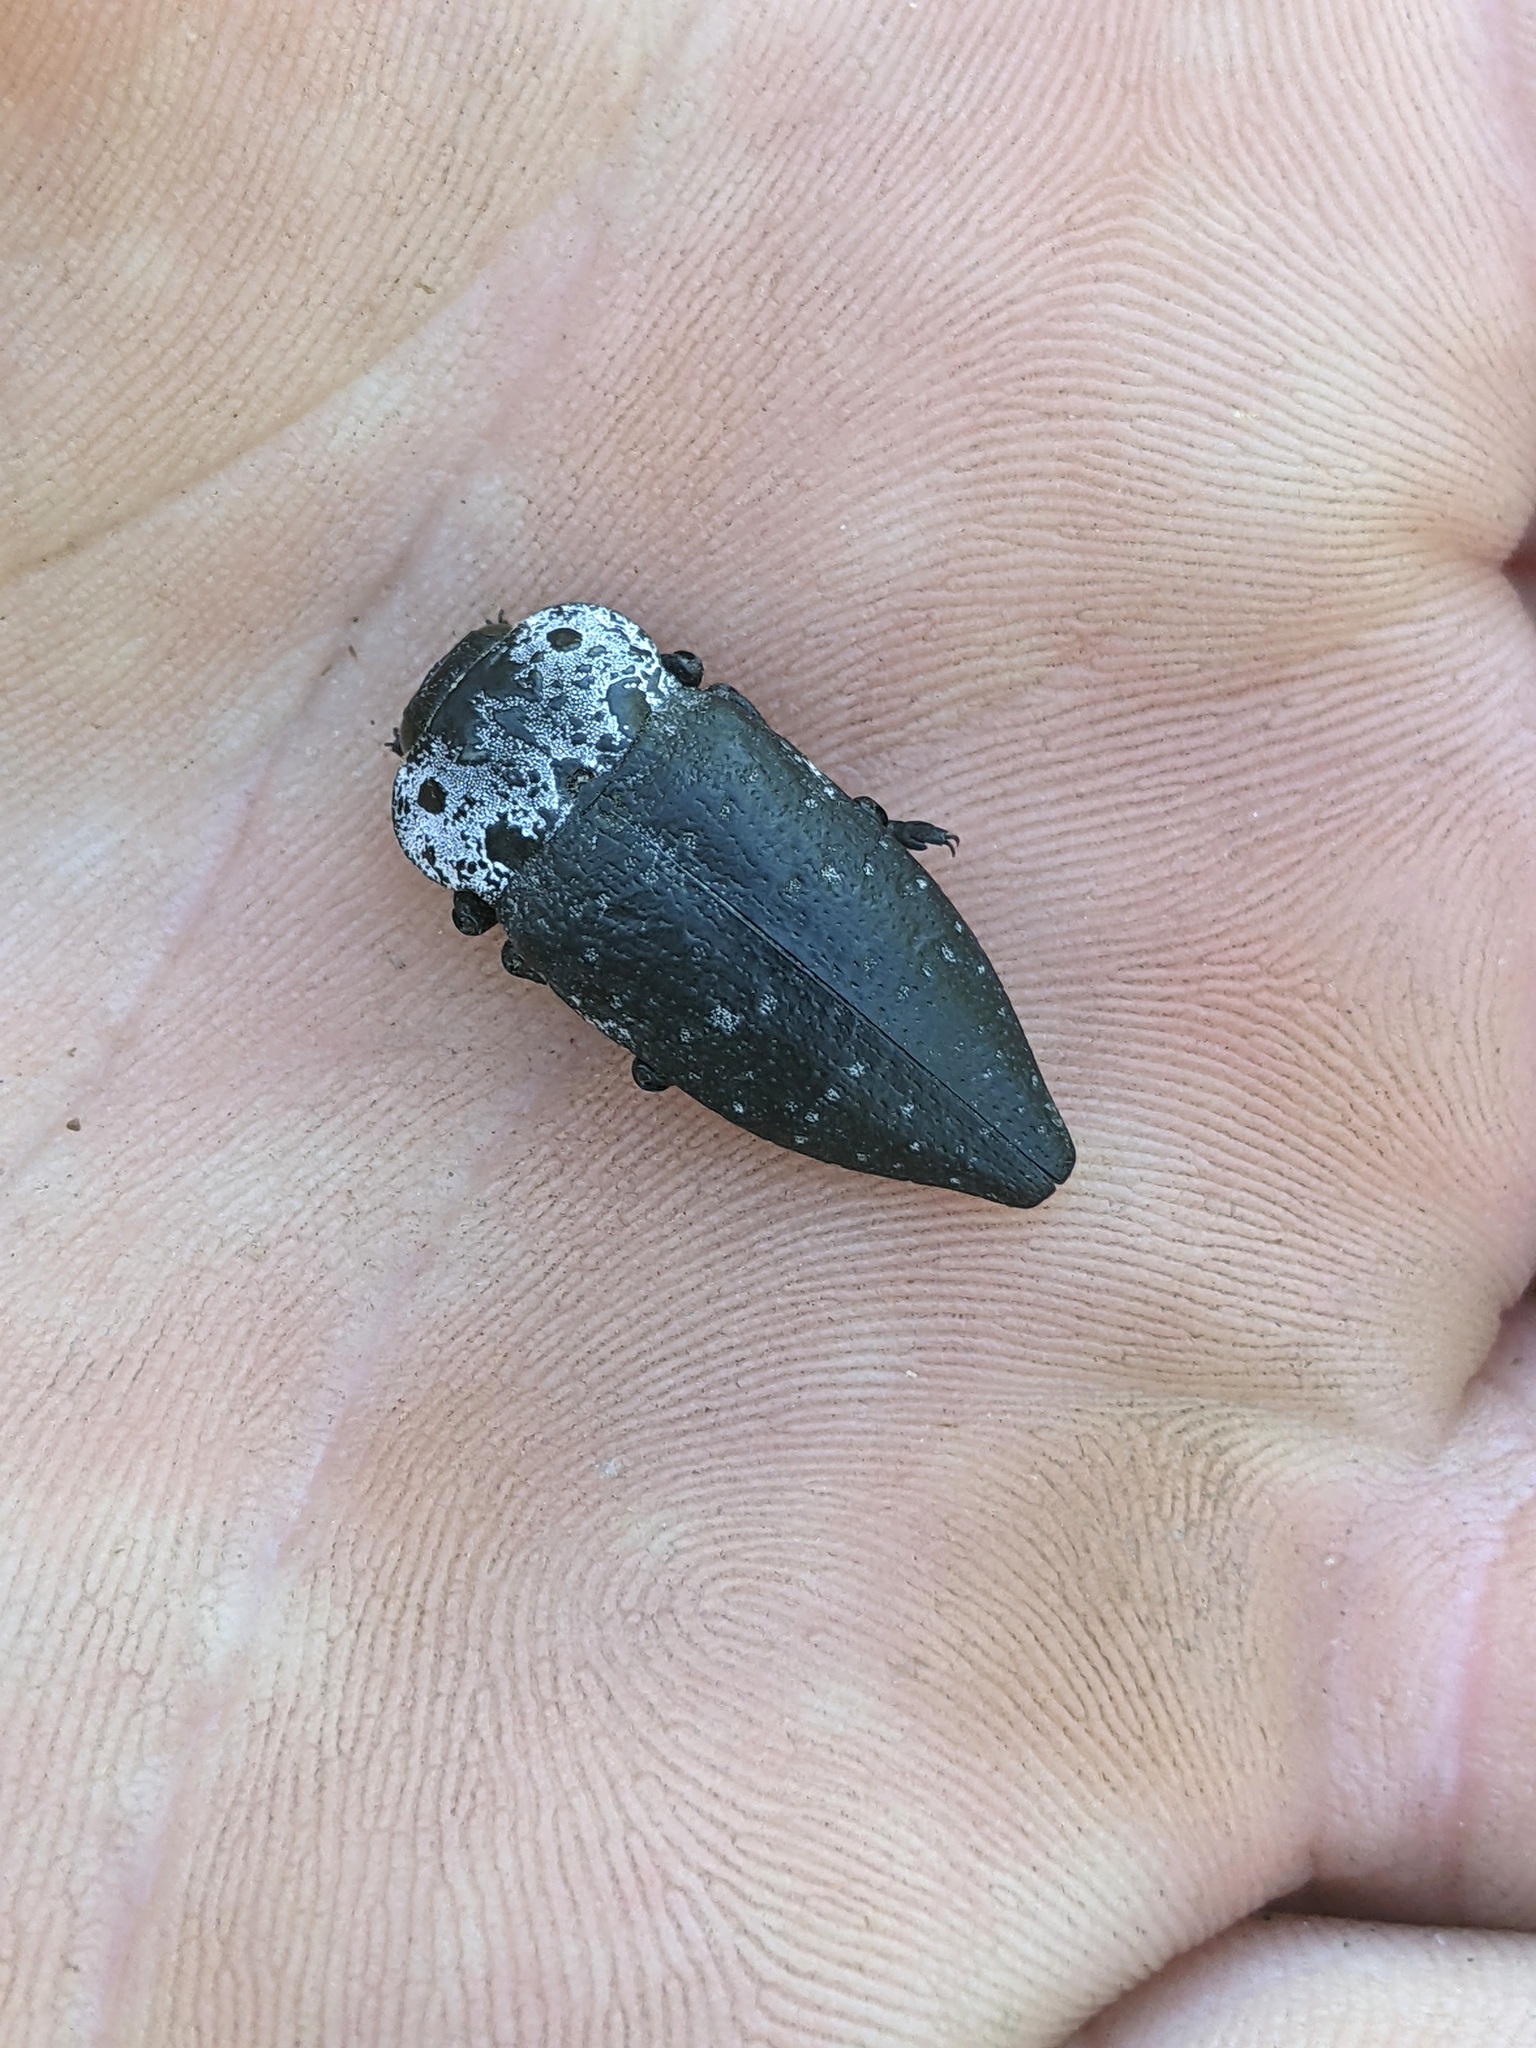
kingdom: Animalia
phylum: Arthropoda
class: Insecta
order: Coleoptera
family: Buprestidae
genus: Capnodis
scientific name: Capnodis tenebrionis
